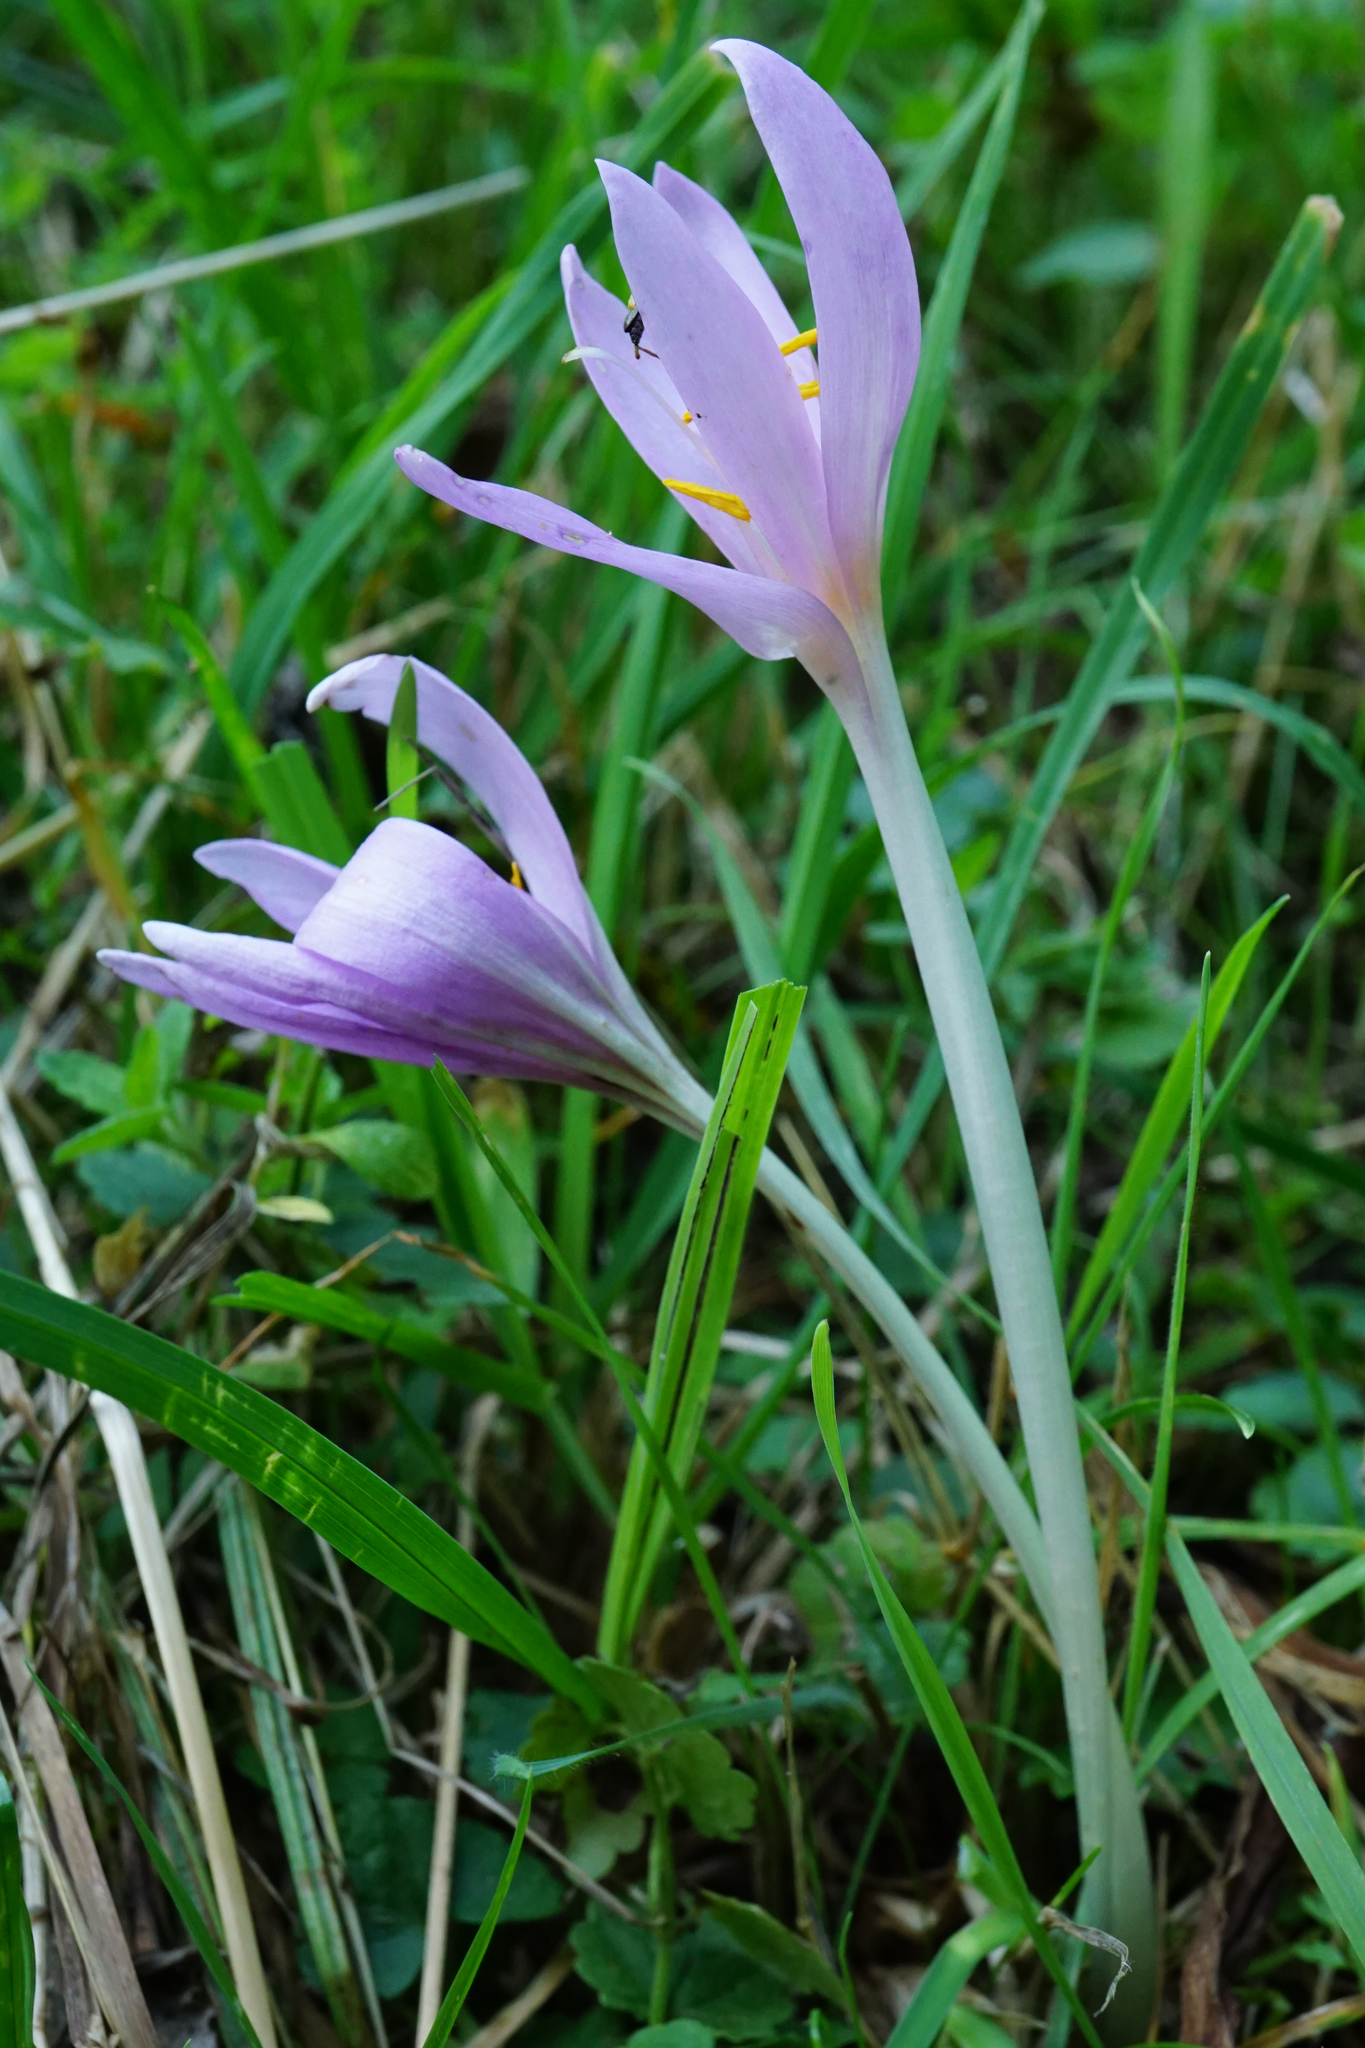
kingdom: Plantae
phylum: Tracheophyta
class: Liliopsida
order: Liliales
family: Colchicaceae
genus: Colchicum
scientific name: Colchicum autumnale
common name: Autumn crocus
